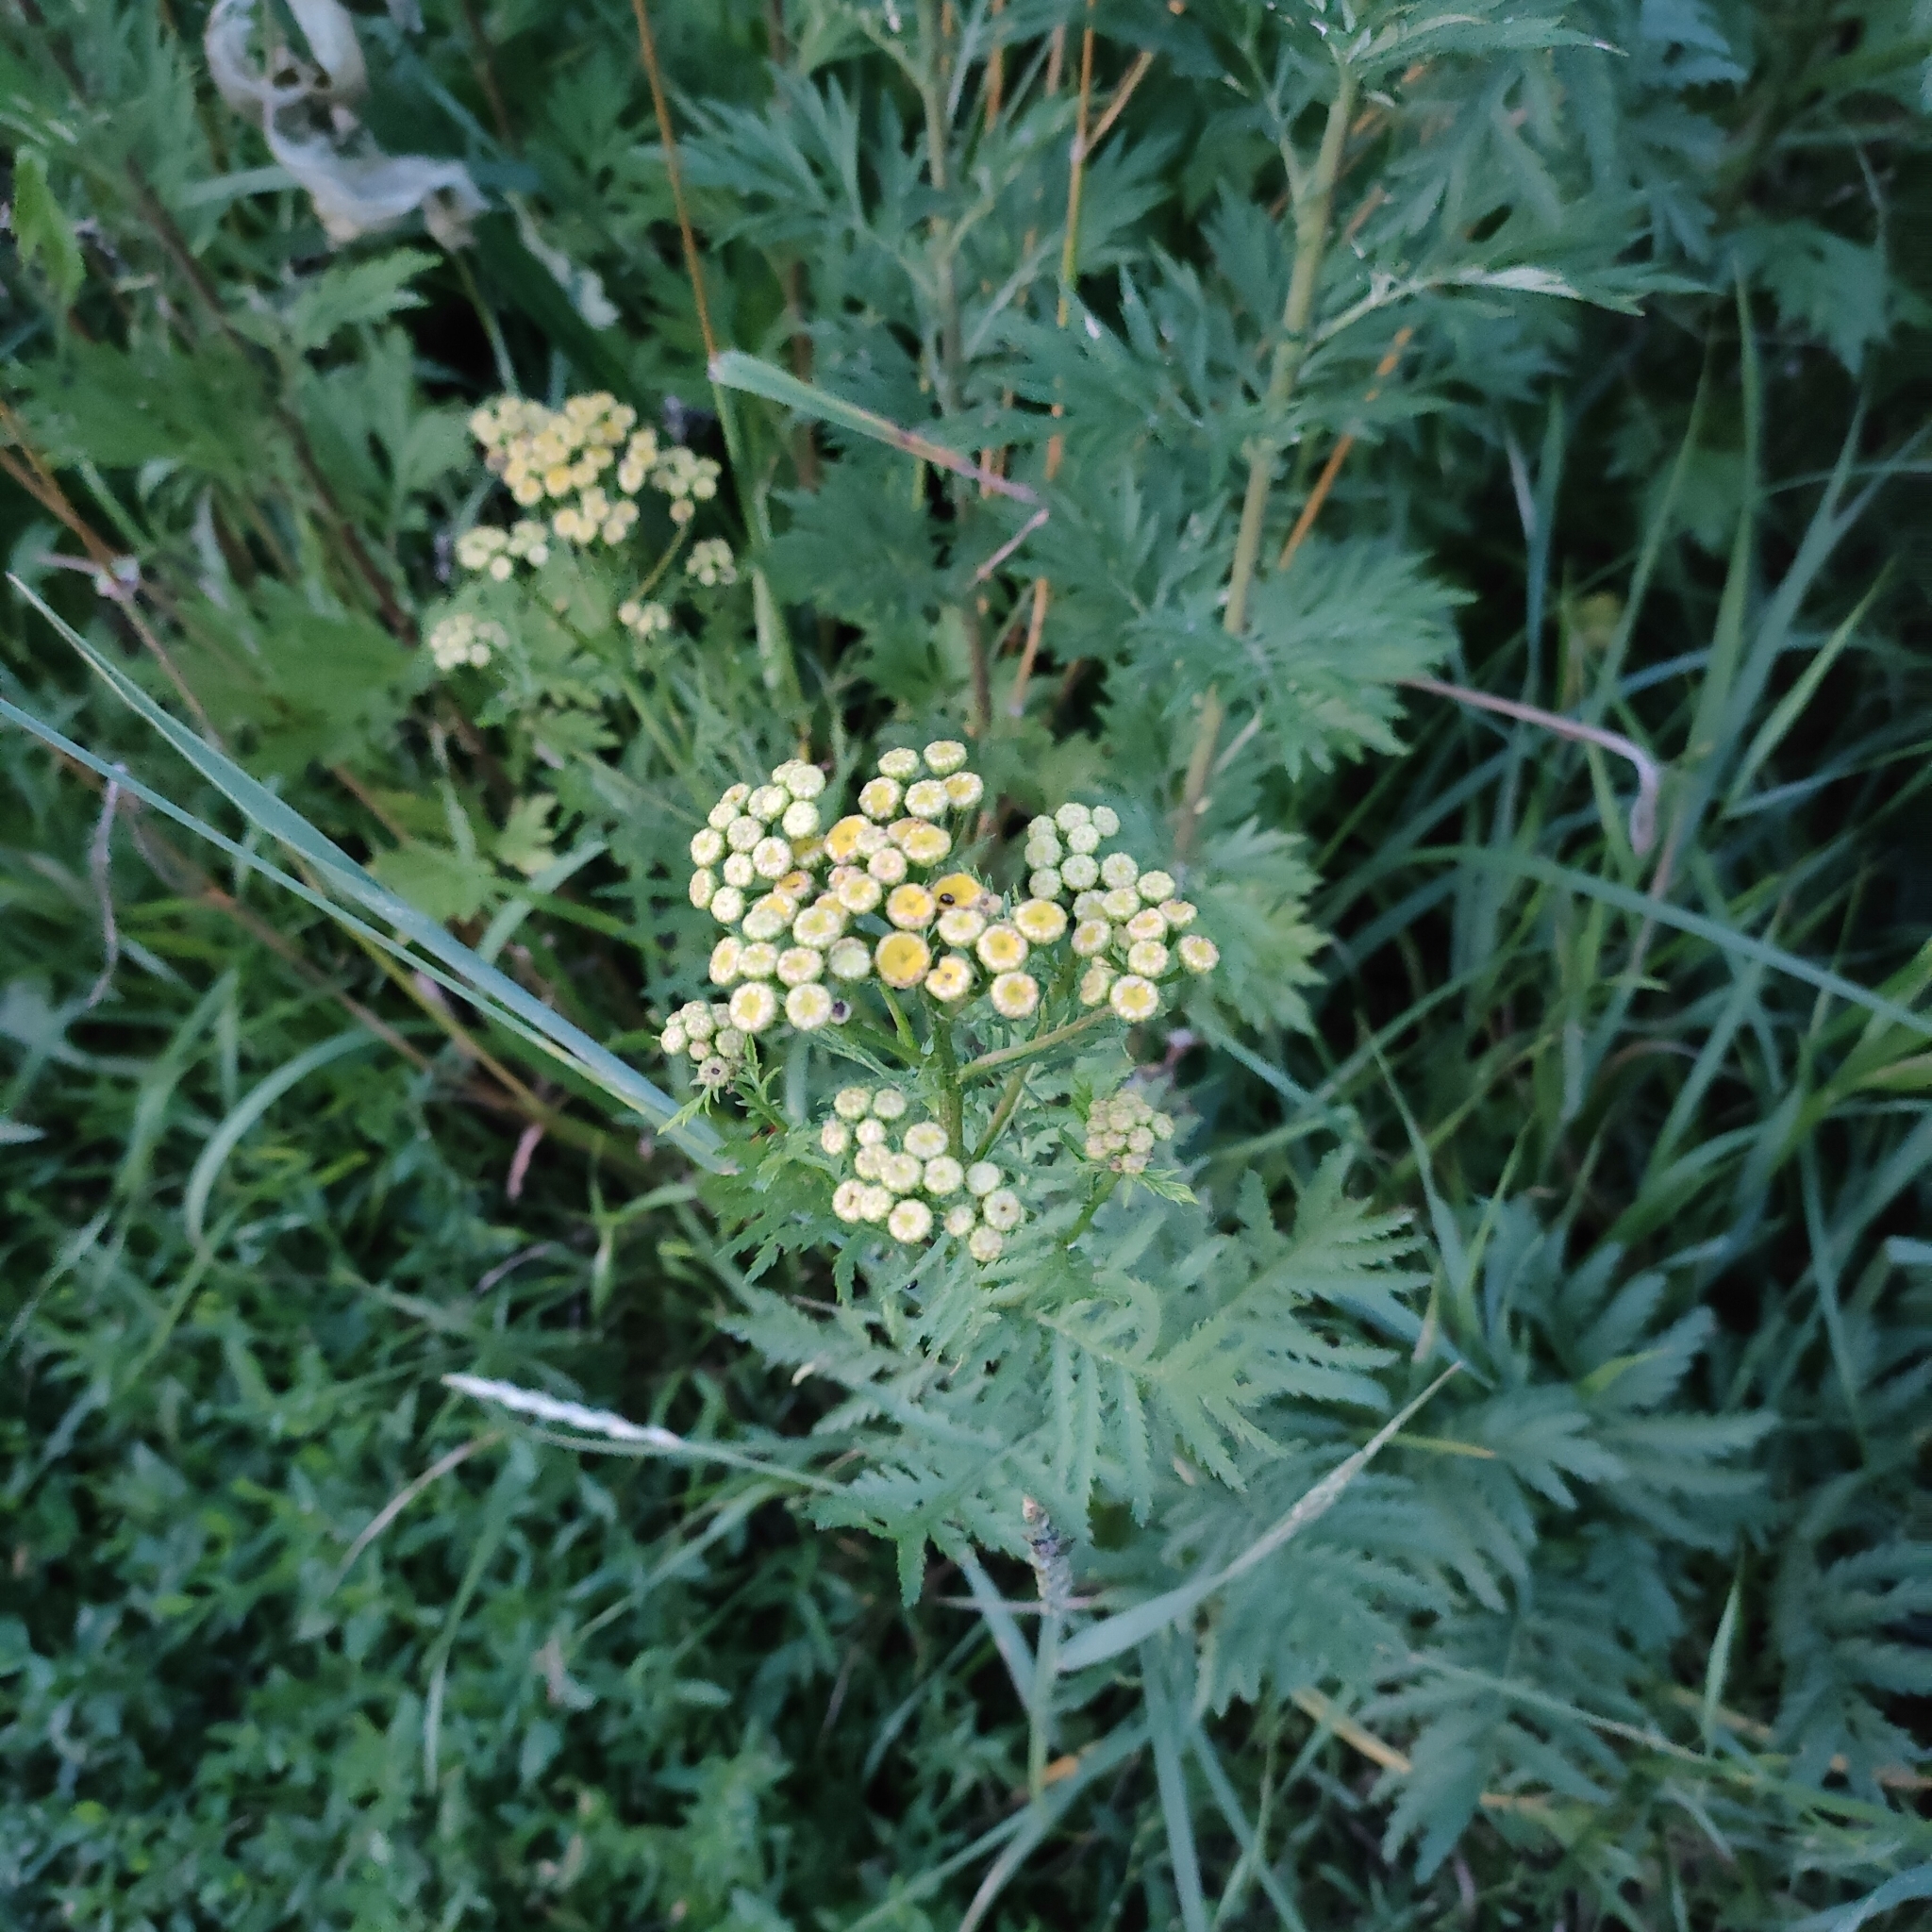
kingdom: Plantae
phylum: Tracheophyta
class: Magnoliopsida
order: Asterales
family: Asteraceae
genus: Tanacetum
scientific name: Tanacetum vulgare
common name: Common tansy
